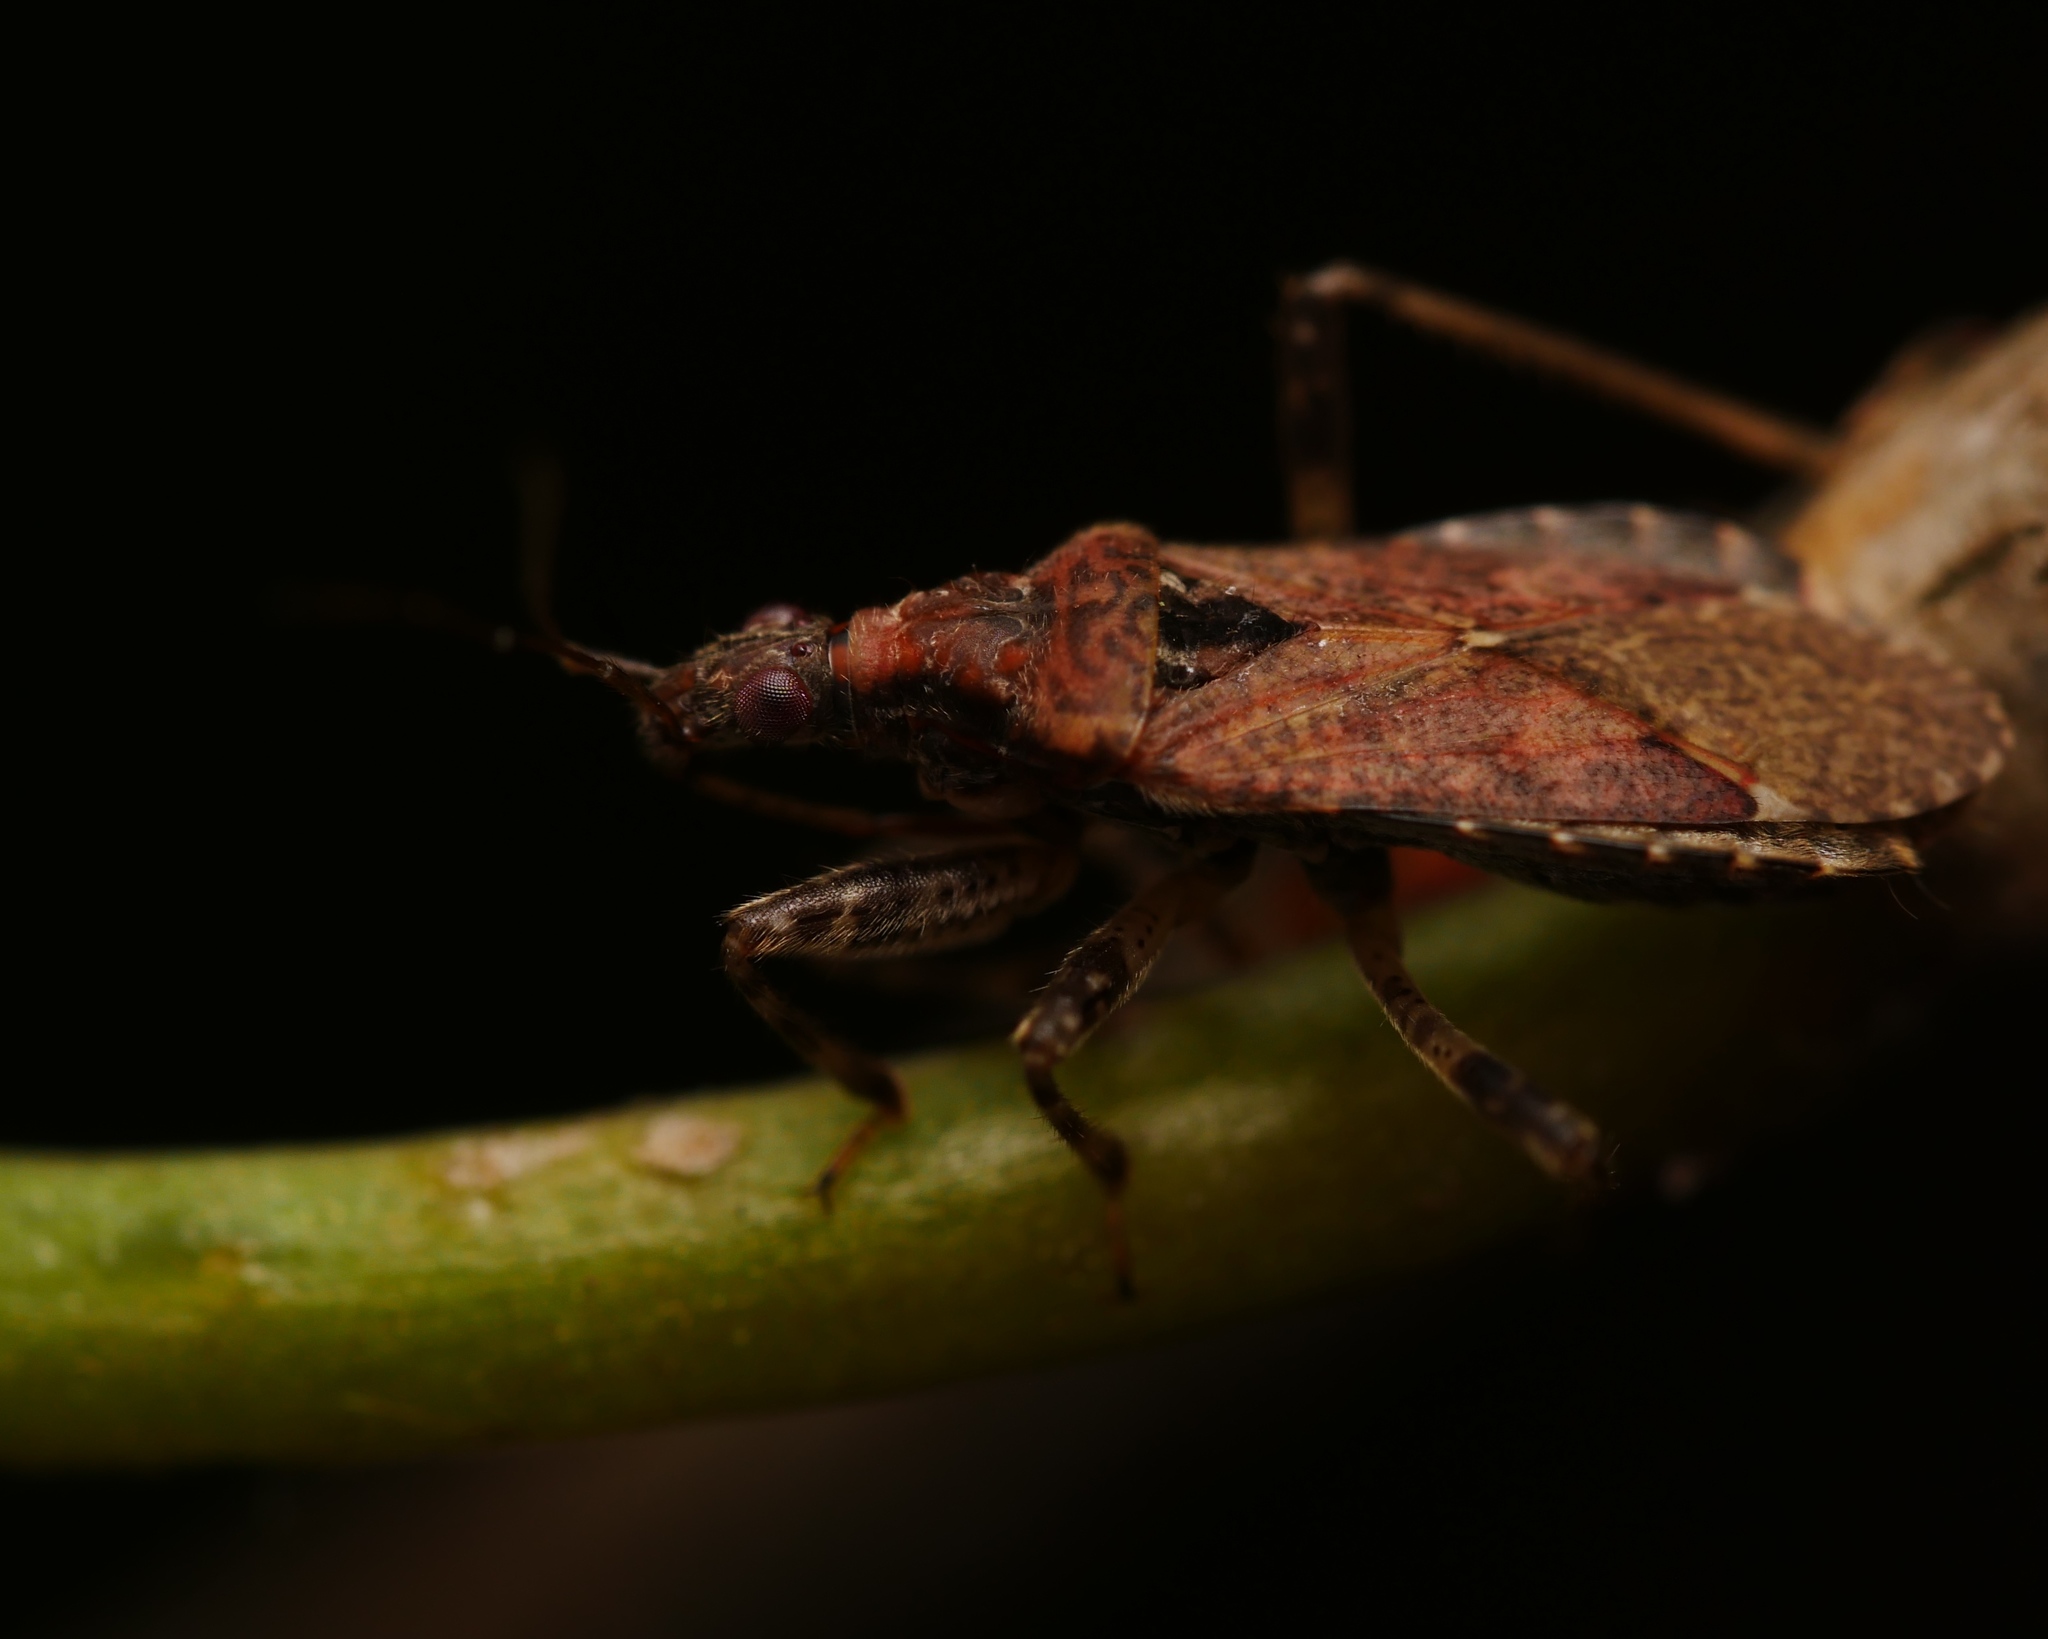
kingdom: Animalia
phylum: Arthropoda
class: Insecta
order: Hemiptera
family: Nabidae
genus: Himacerus
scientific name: Himacerus mirmicoides
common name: Ant damsel bug
